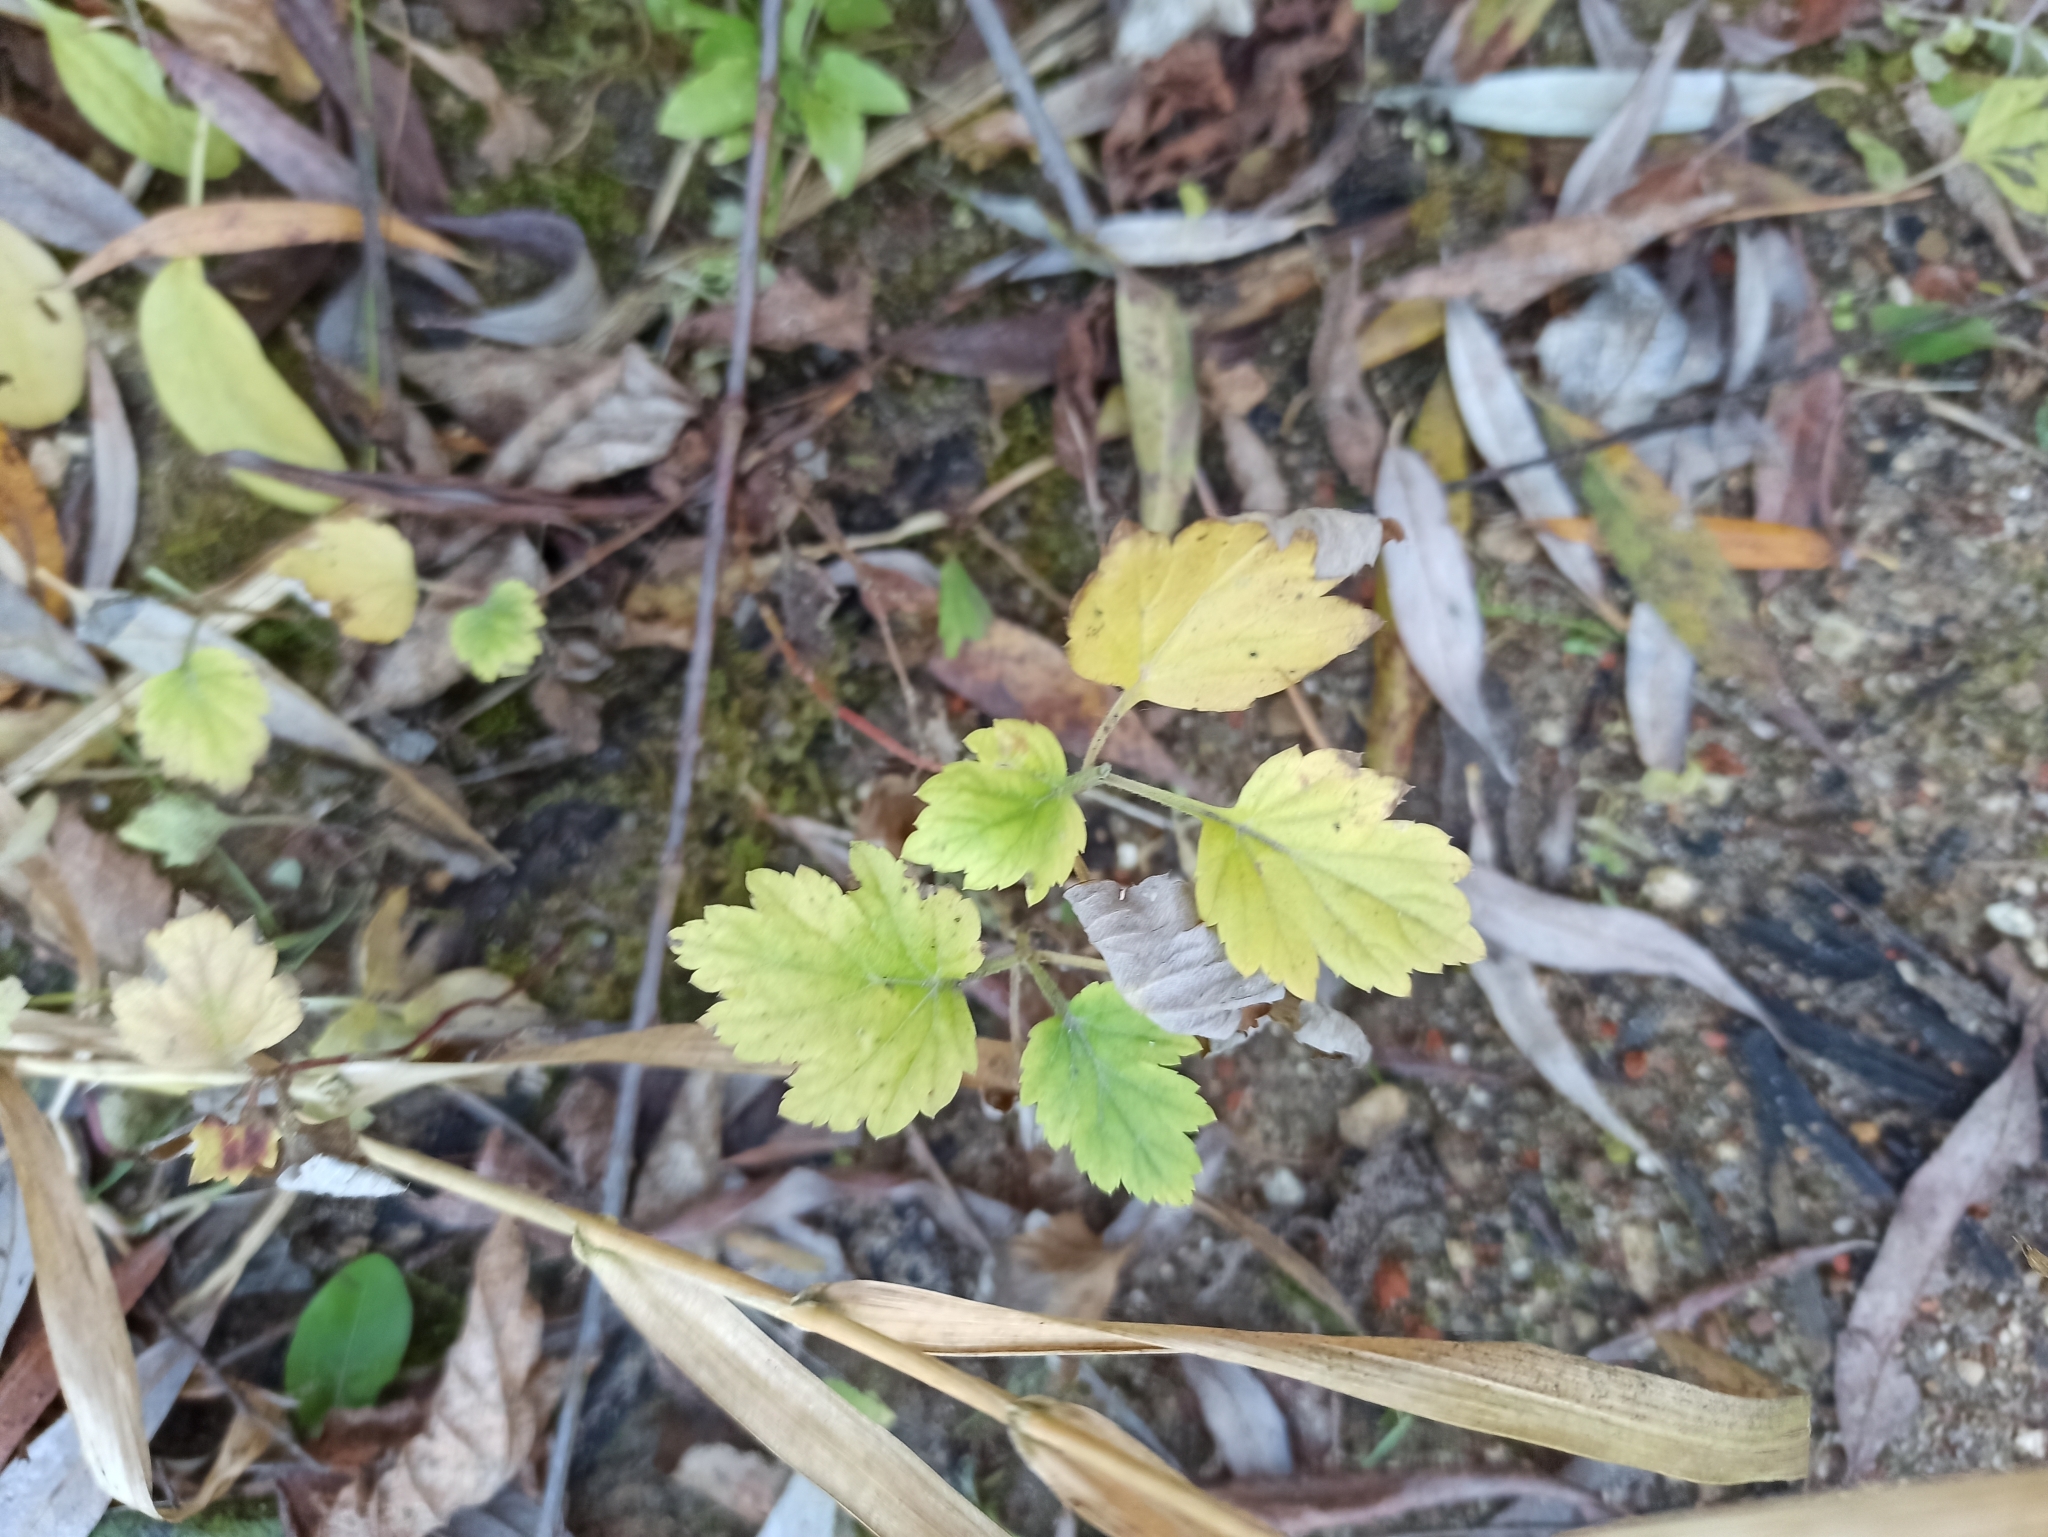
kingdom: Plantae
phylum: Tracheophyta
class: Magnoliopsida
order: Asterales
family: Asteraceae
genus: Artemisia
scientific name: Artemisia vulgaris
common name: Mugwort
